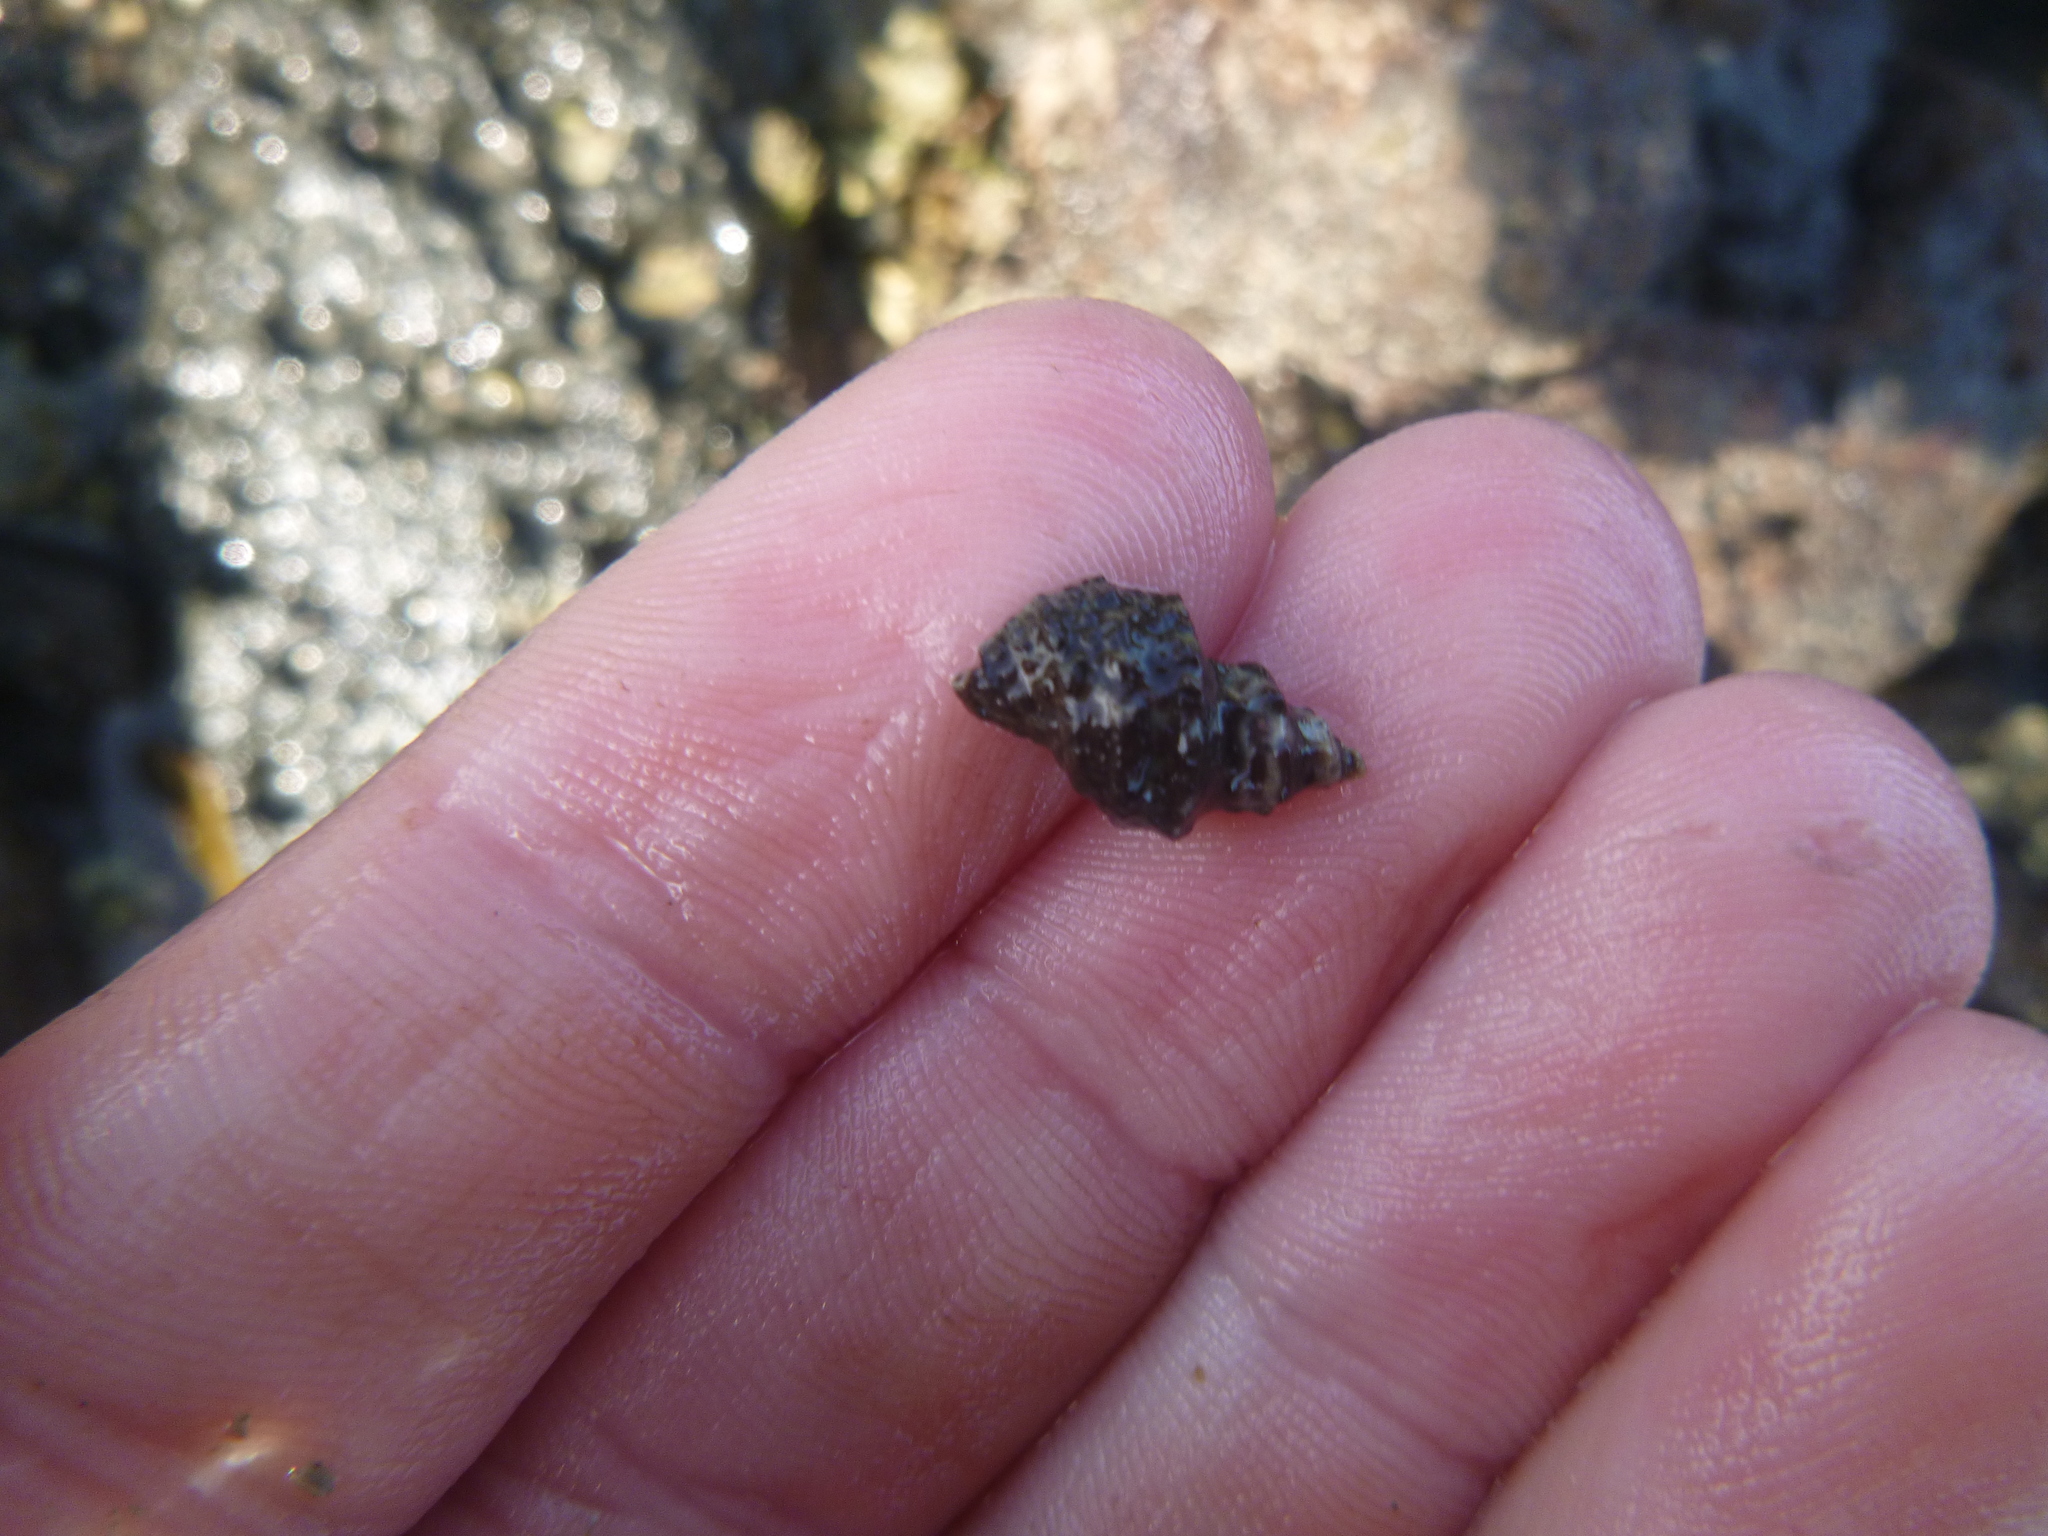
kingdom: Animalia
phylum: Mollusca
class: Gastropoda
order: Neogastropoda
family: Muricidae
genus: Haustrum
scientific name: Haustrum scobina
